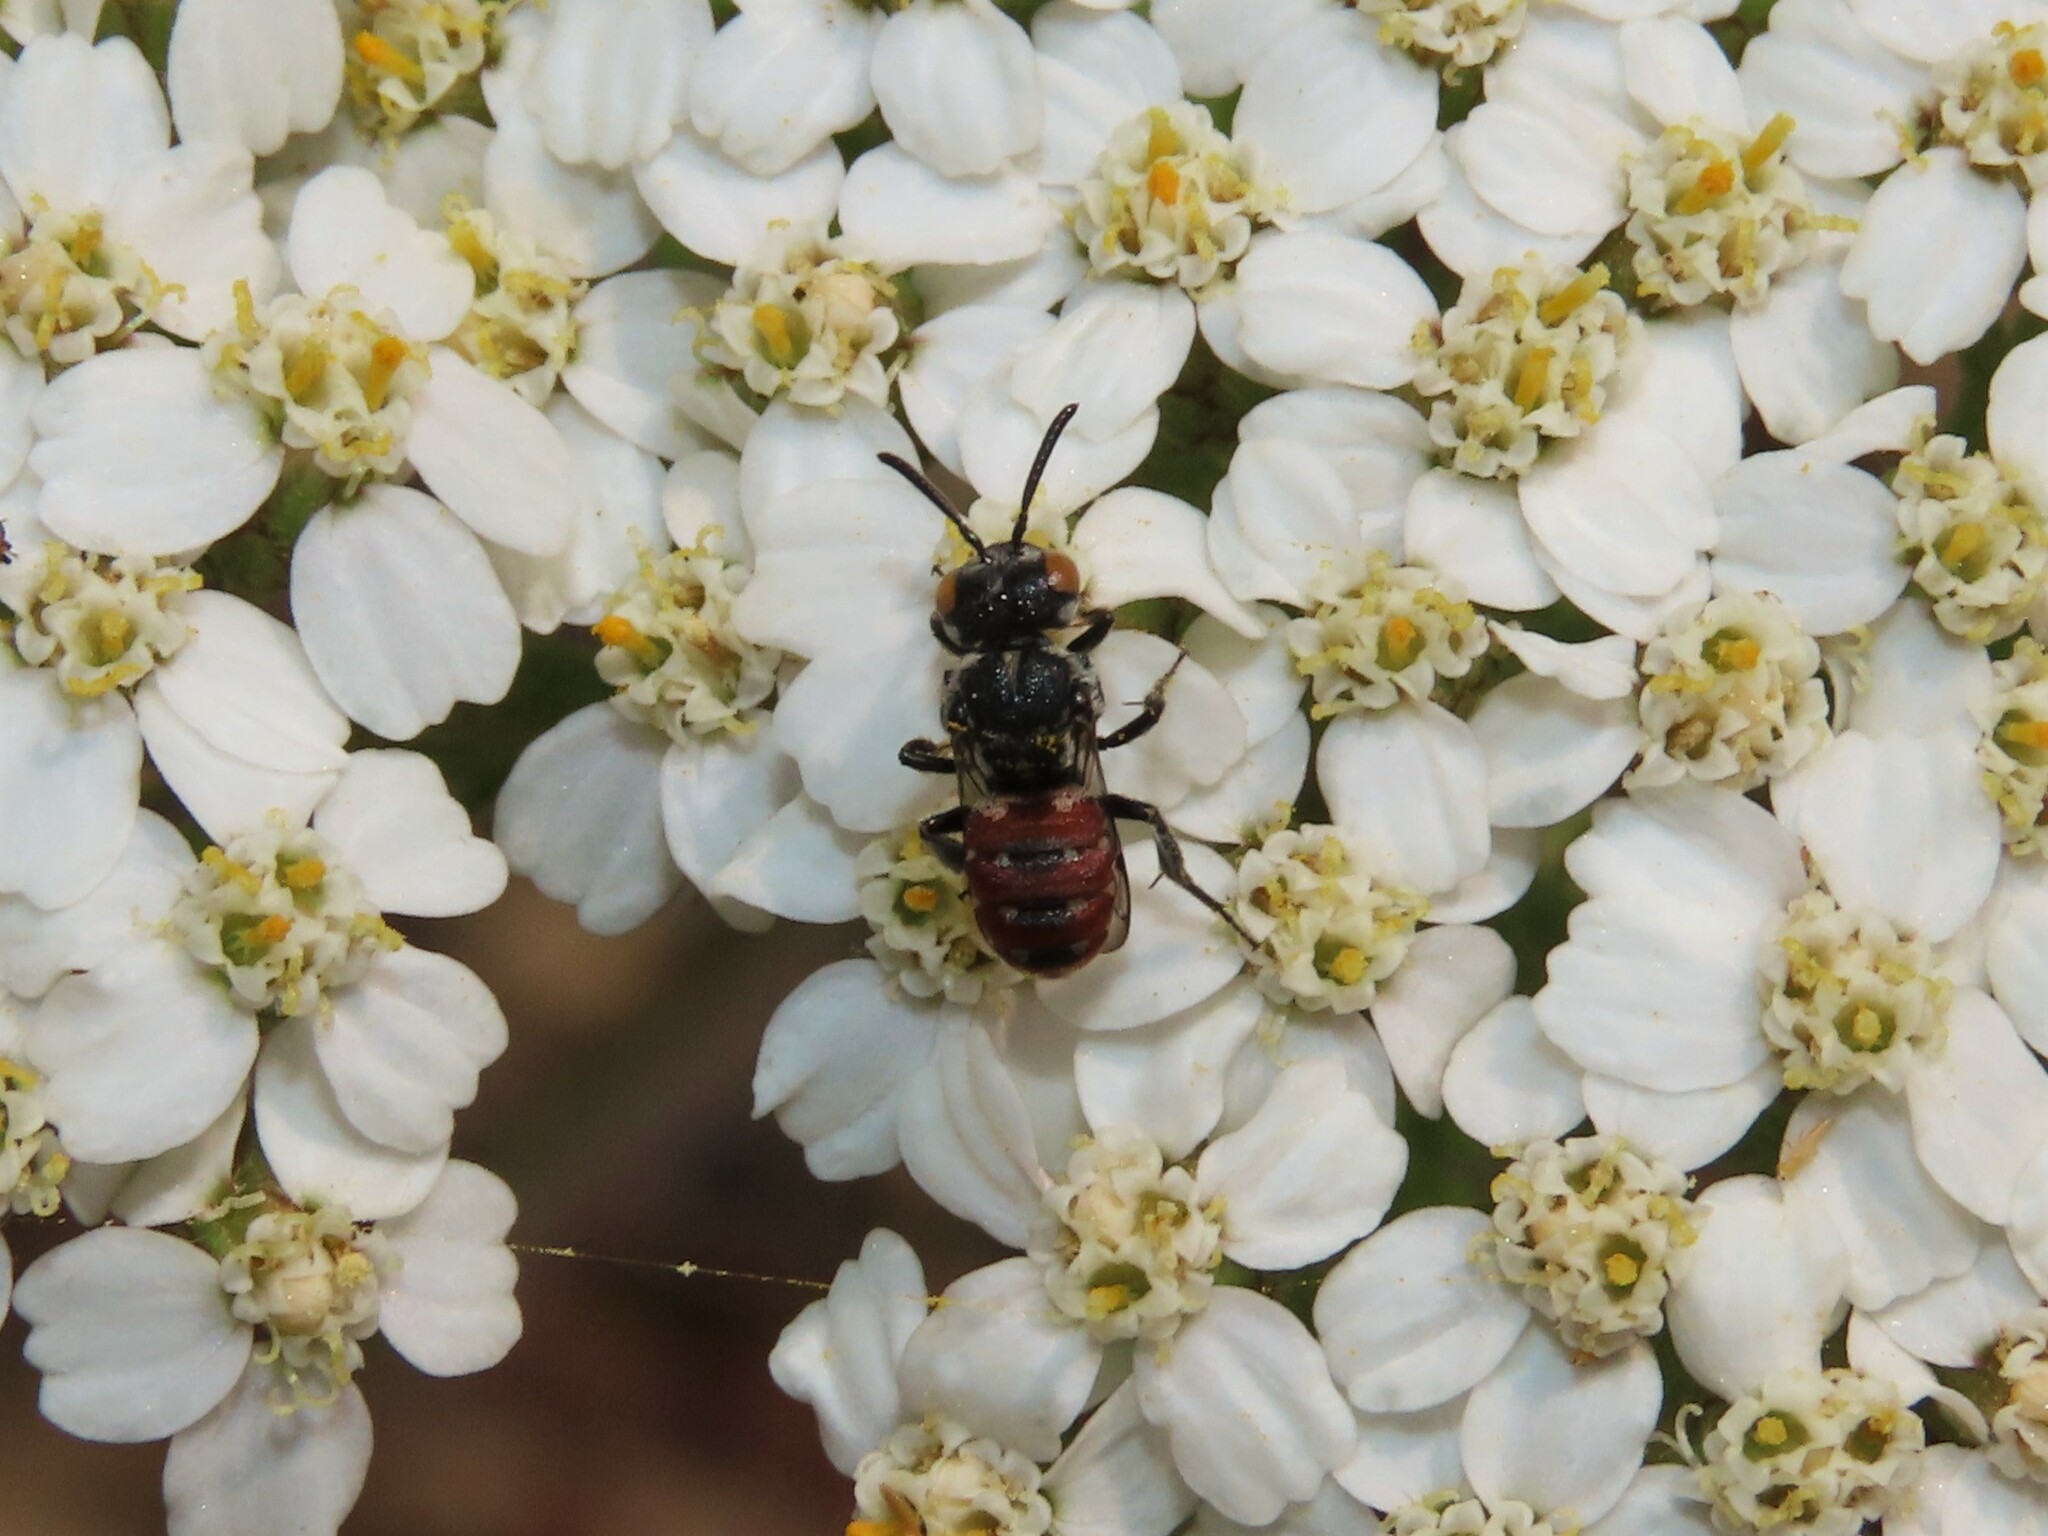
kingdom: Animalia
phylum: Arthropoda
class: Insecta
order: Hymenoptera
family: Apidae
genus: Holcopasites
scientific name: Holcopasites calliopsidis
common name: Calliopsis cuckoo nomad bee
